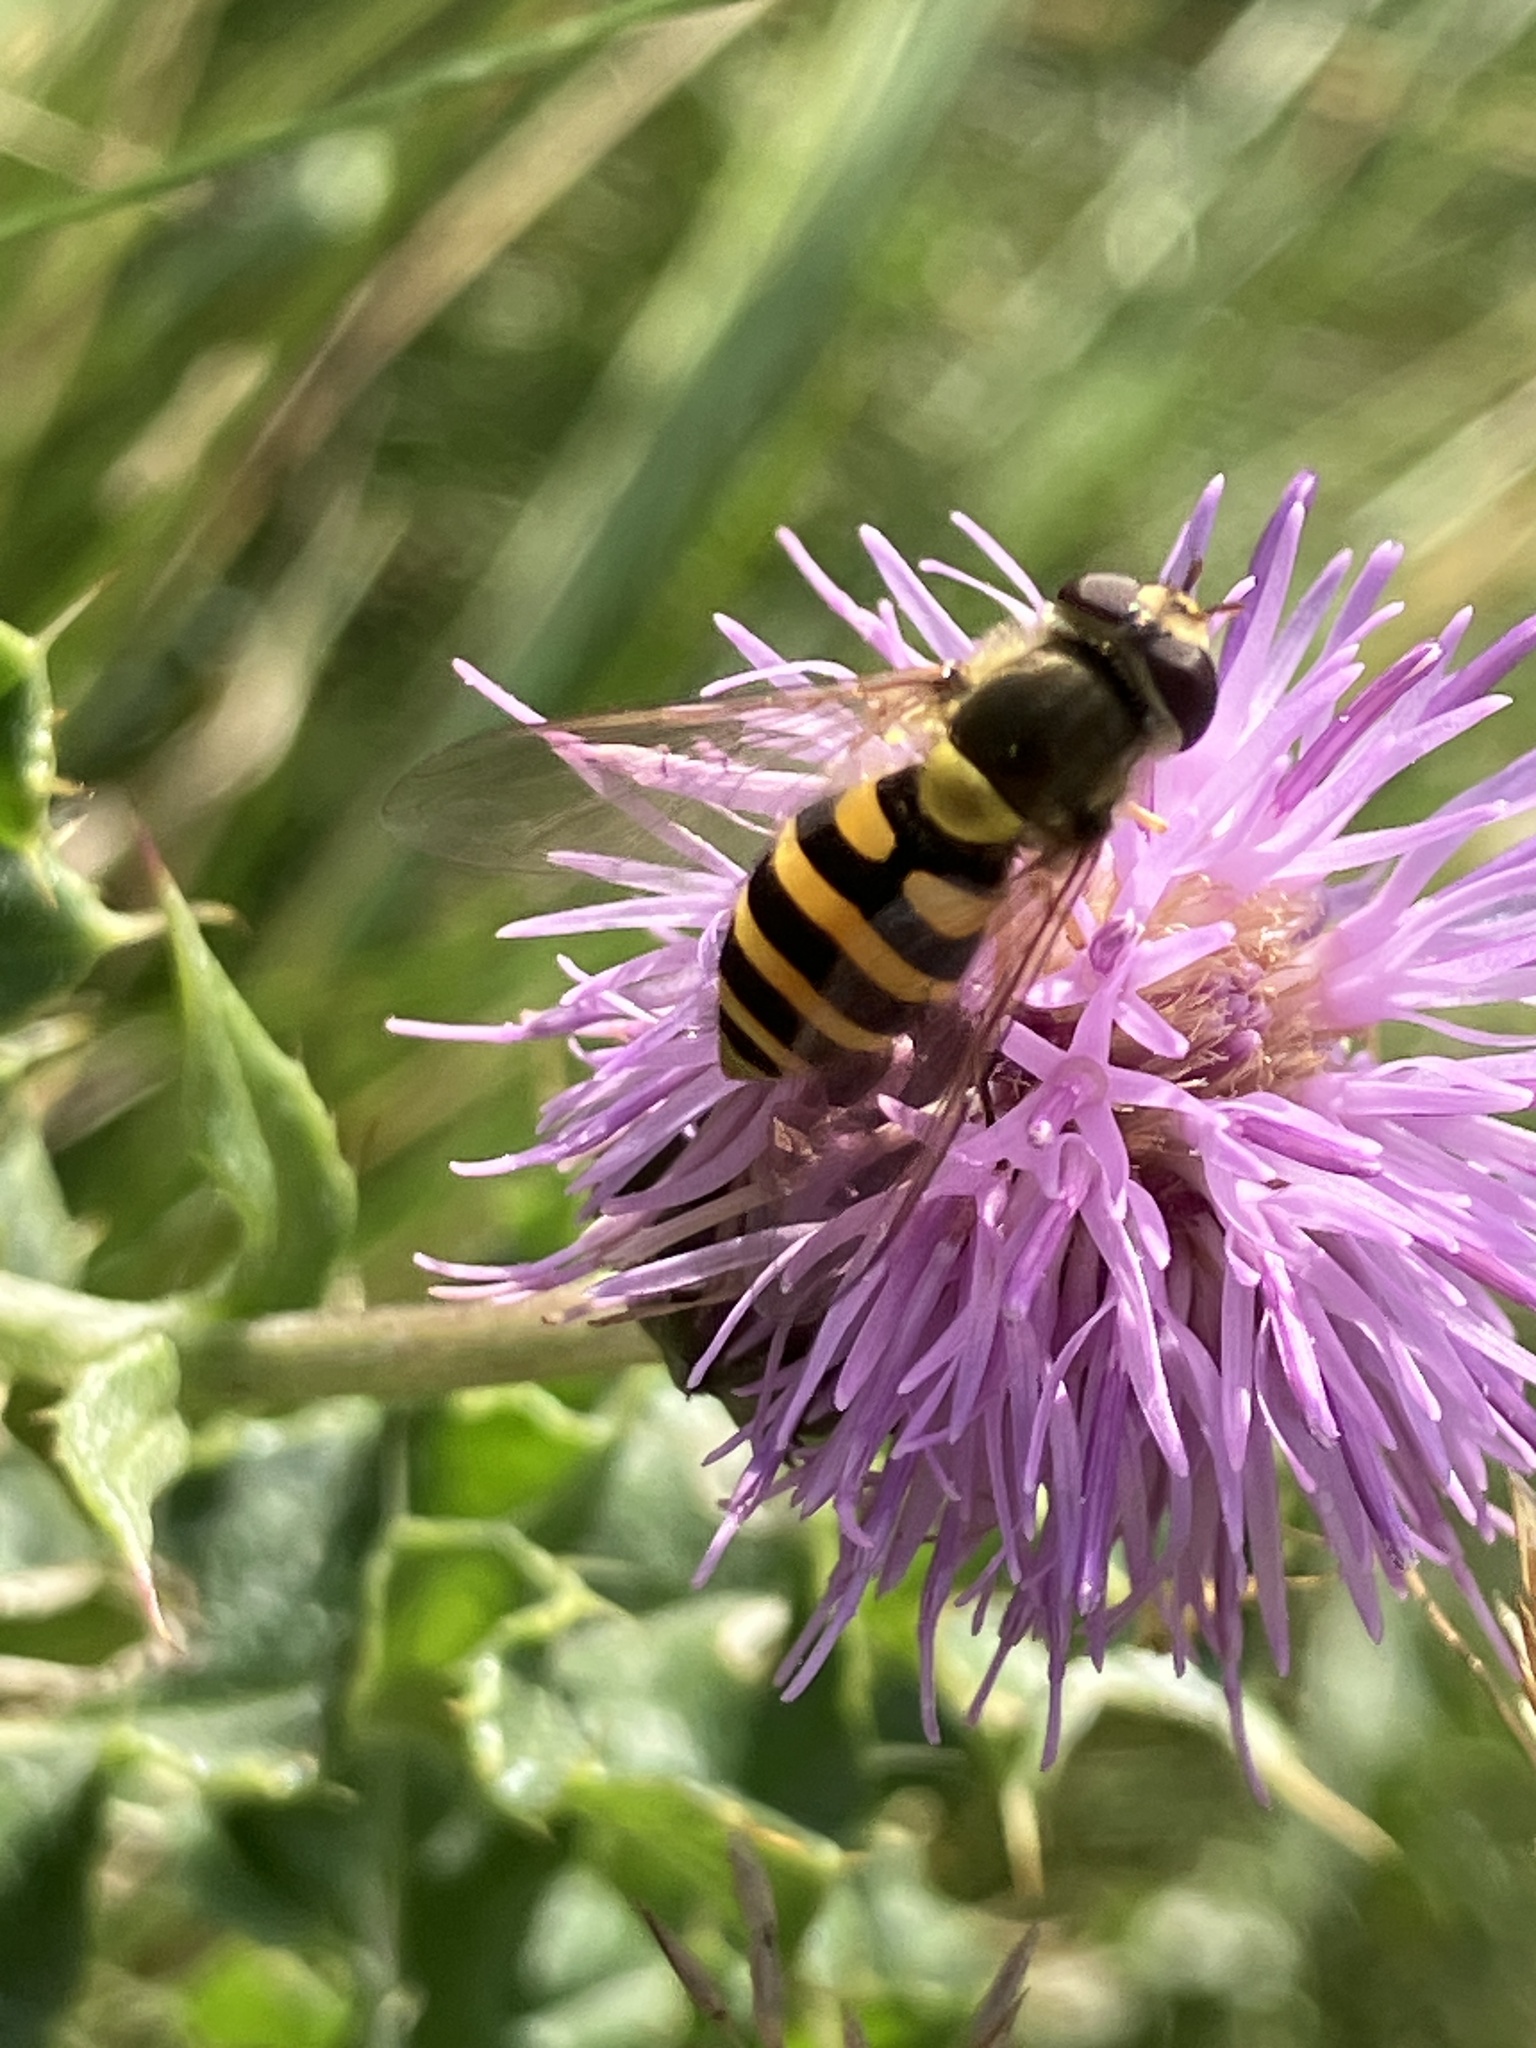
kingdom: Animalia
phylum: Arthropoda
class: Insecta
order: Diptera
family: Syrphidae
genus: Syrphus
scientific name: Syrphus
